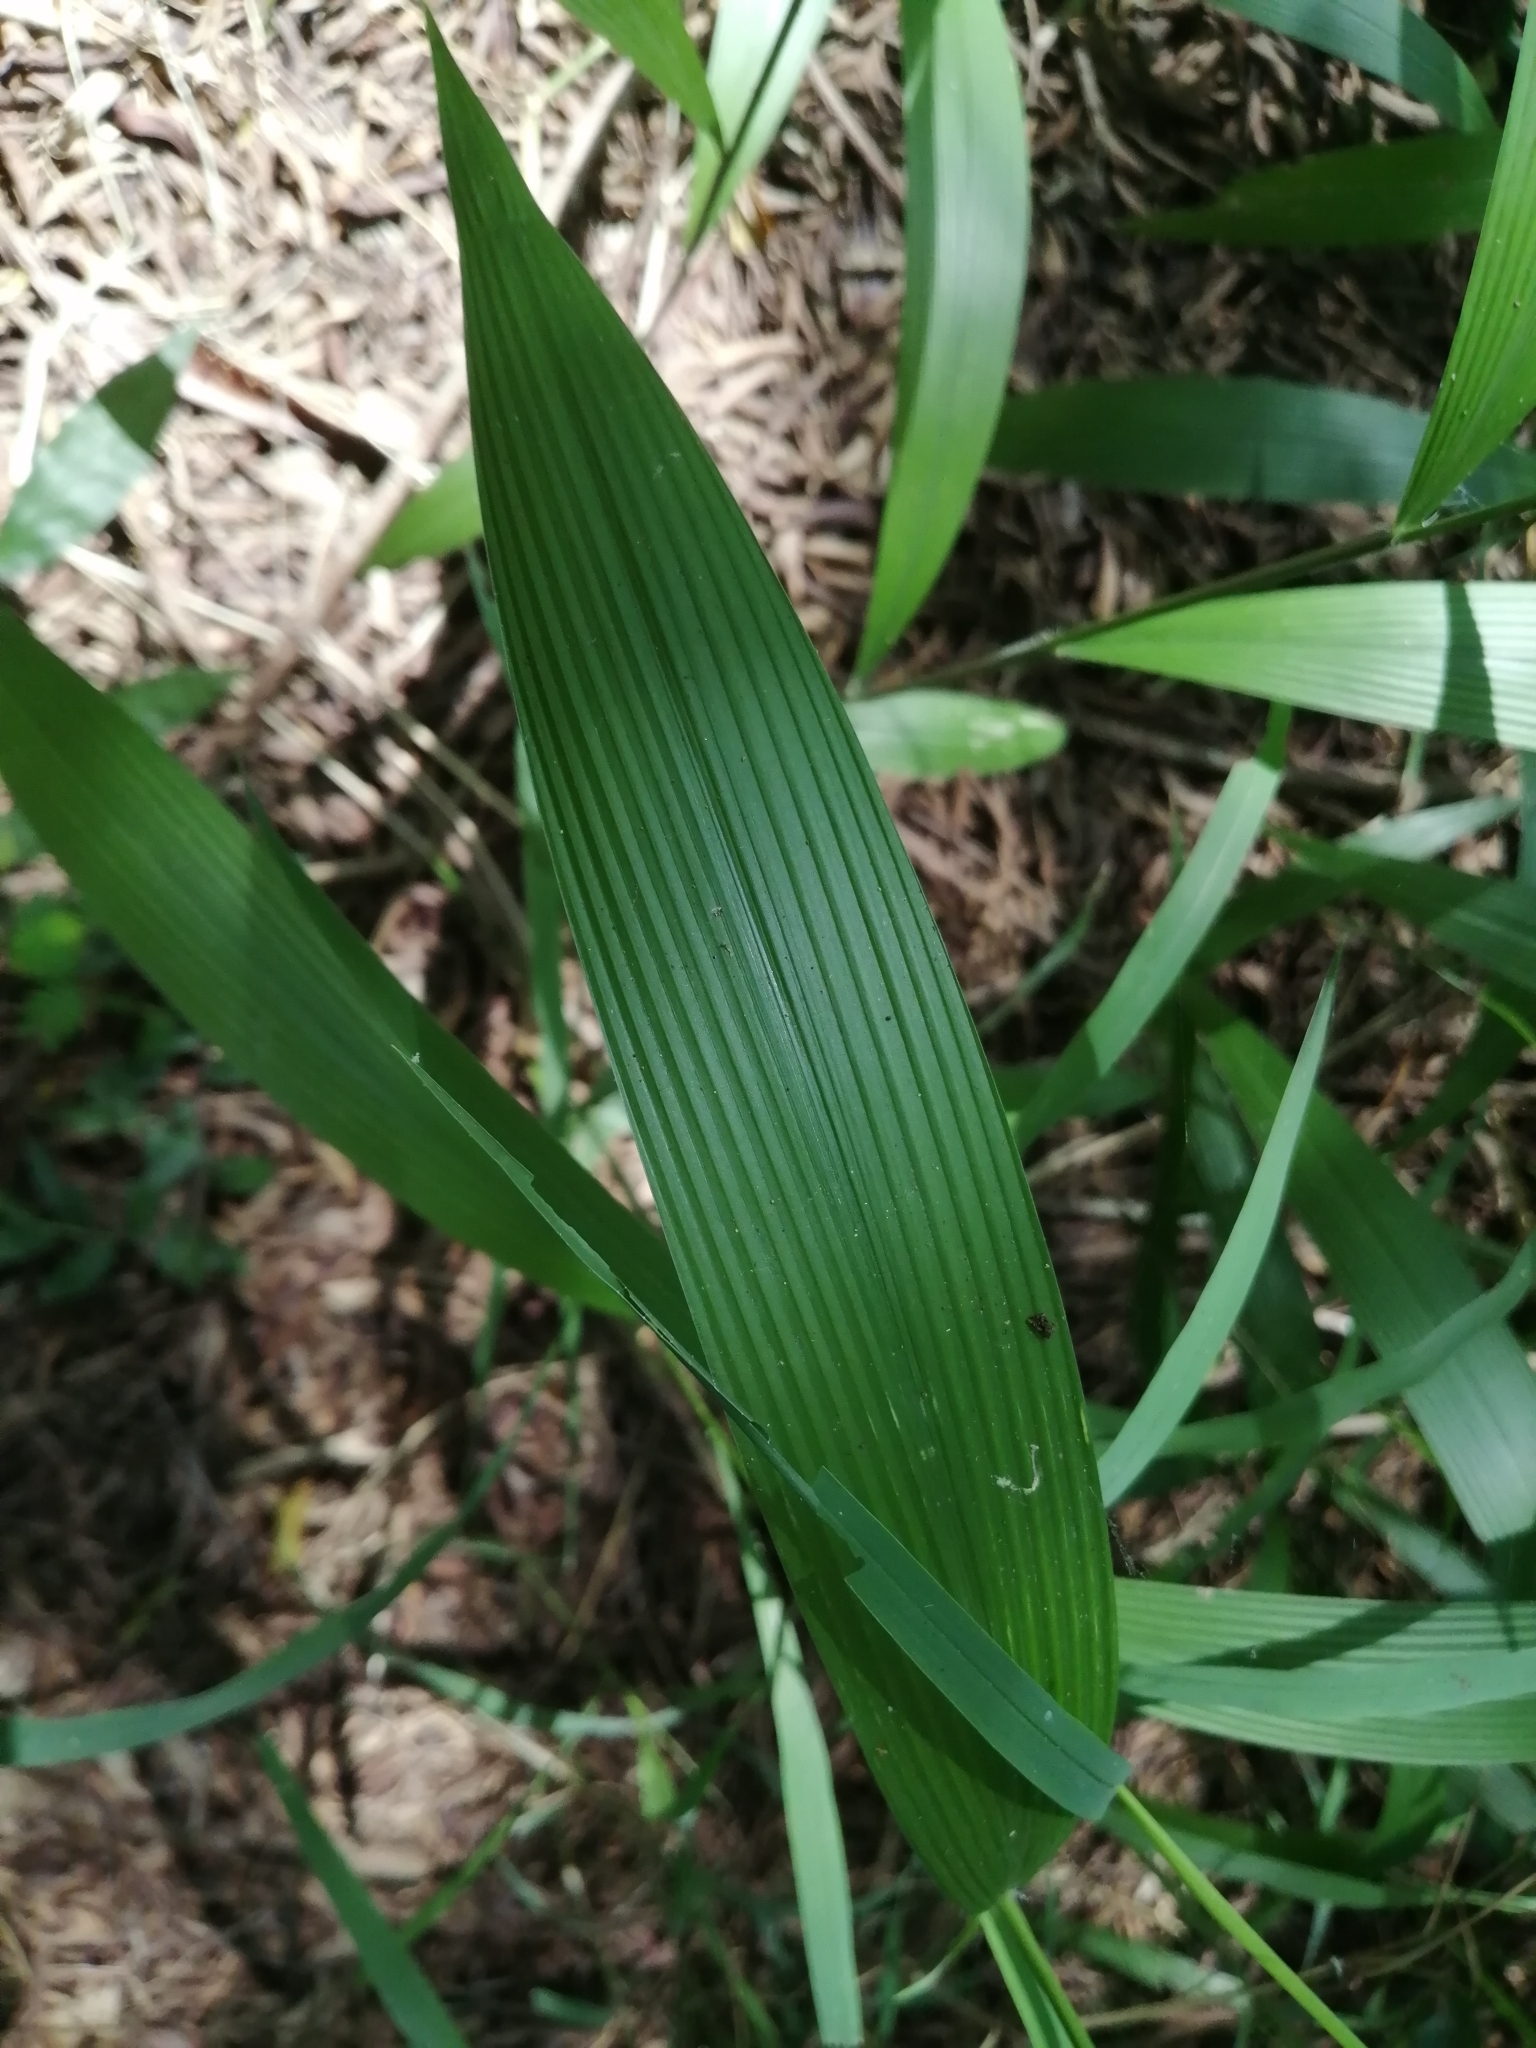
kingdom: Plantae
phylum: Tracheophyta
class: Liliopsida
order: Poales
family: Poaceae
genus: Setaria
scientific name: Setaria palmifolia
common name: Broadleaved bristlegrass
